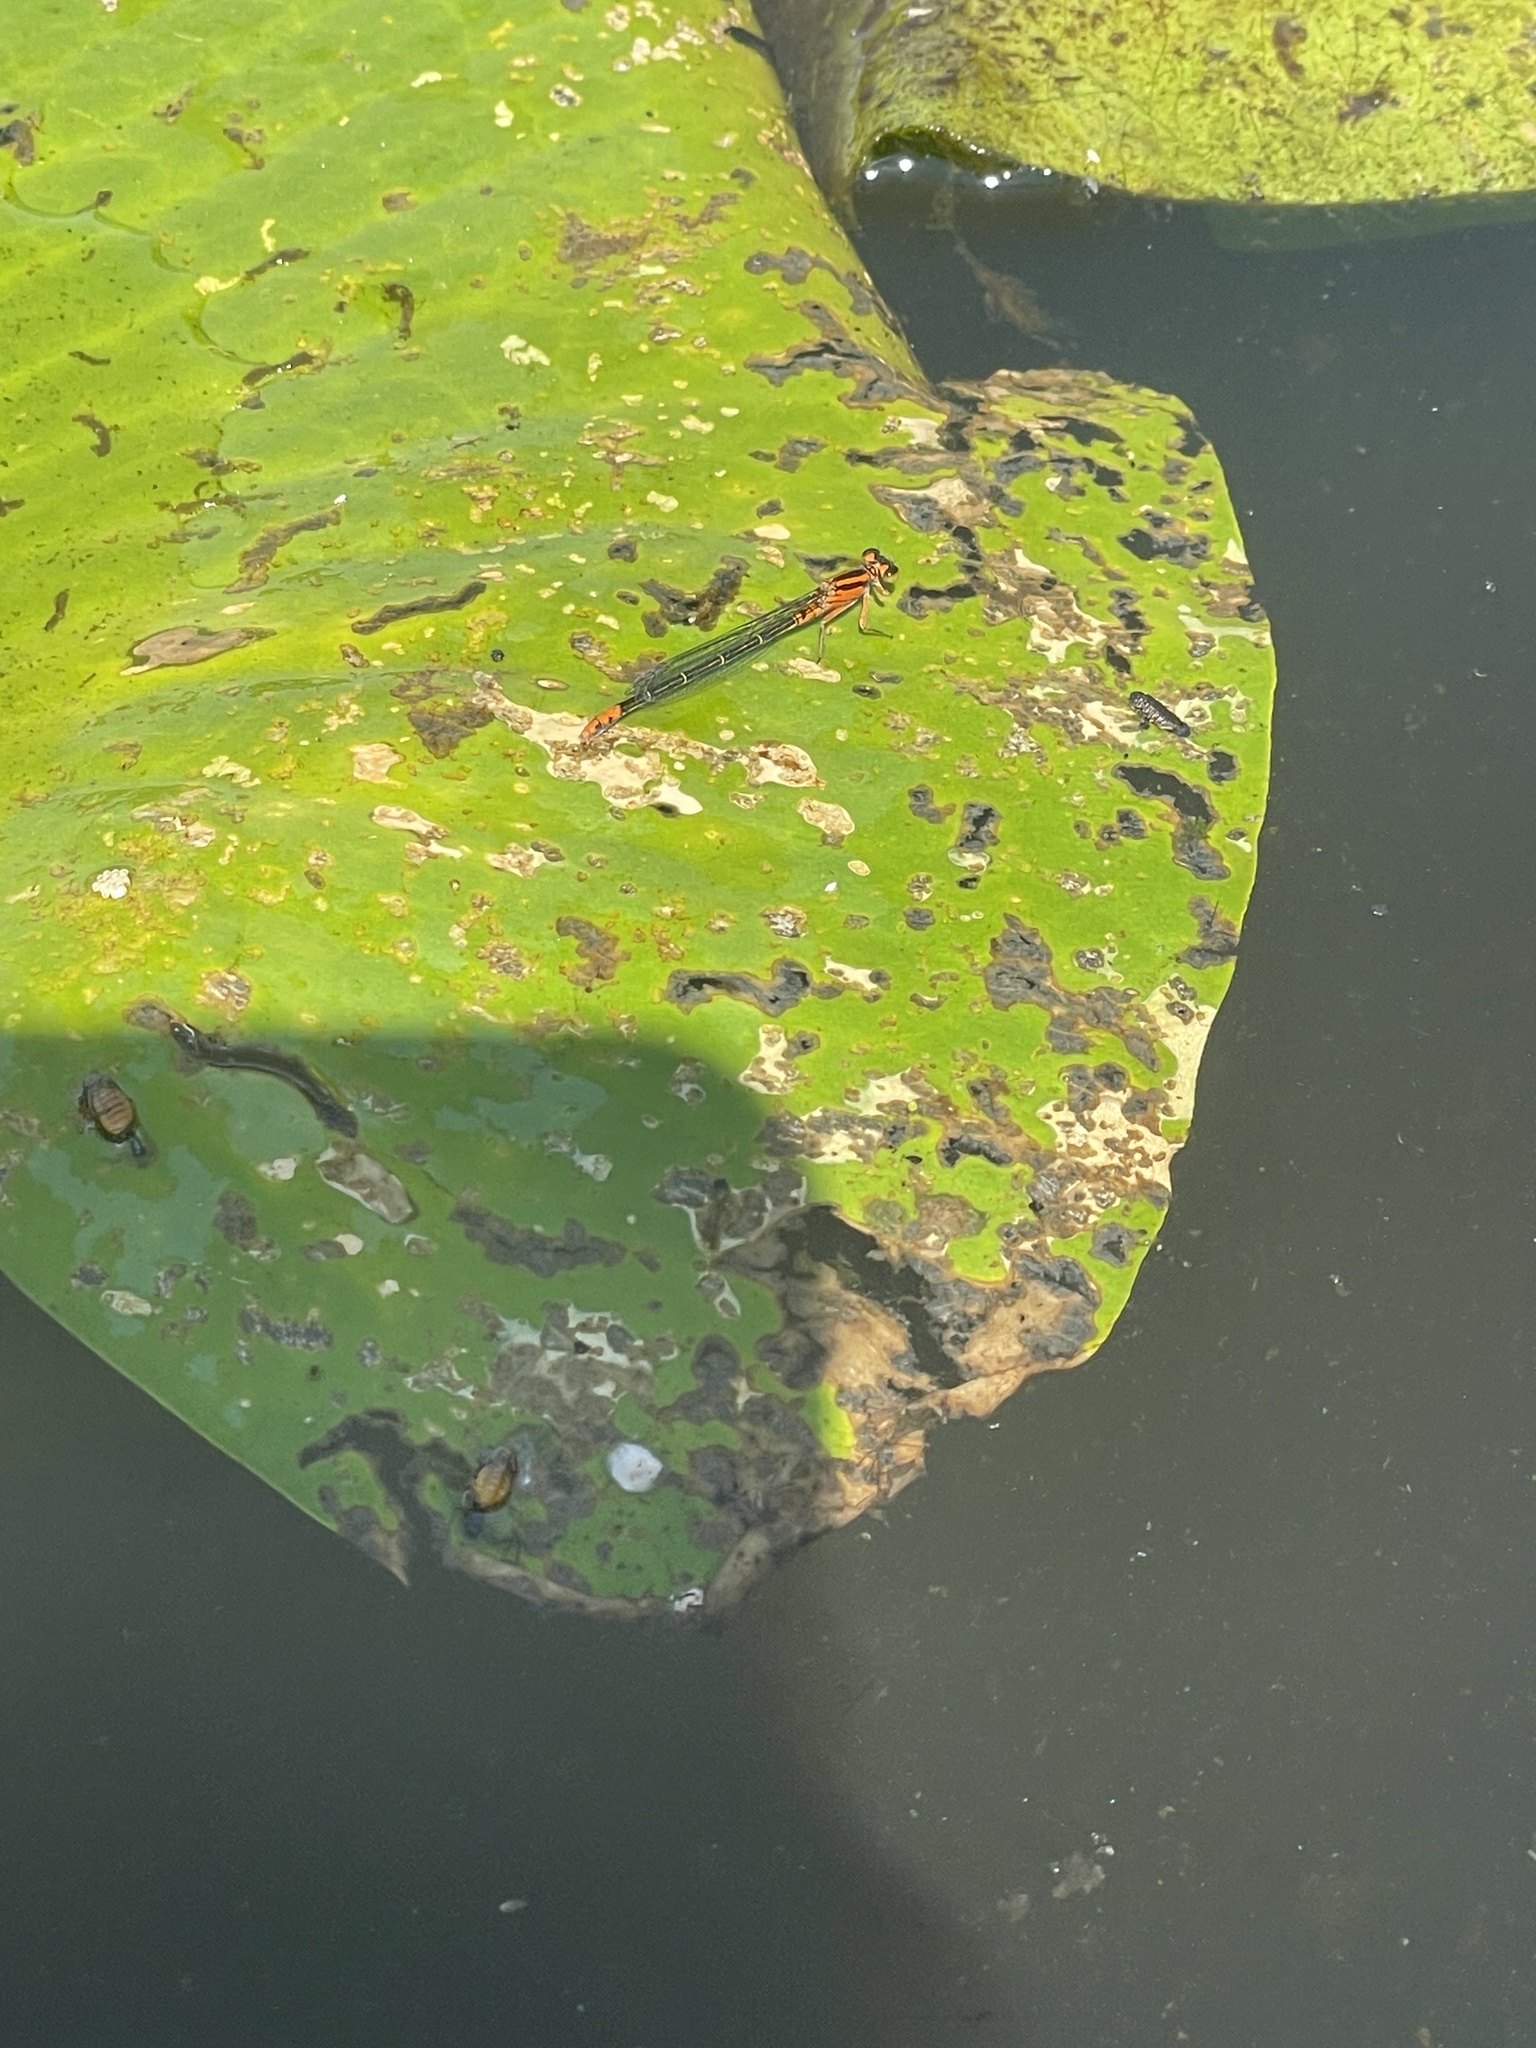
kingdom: Animalia
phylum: Arthropoda
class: Insecta
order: Odonata
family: Coenagrionidae
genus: Ischnura
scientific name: Ischnura kellicotti
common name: Lilypad forktail
